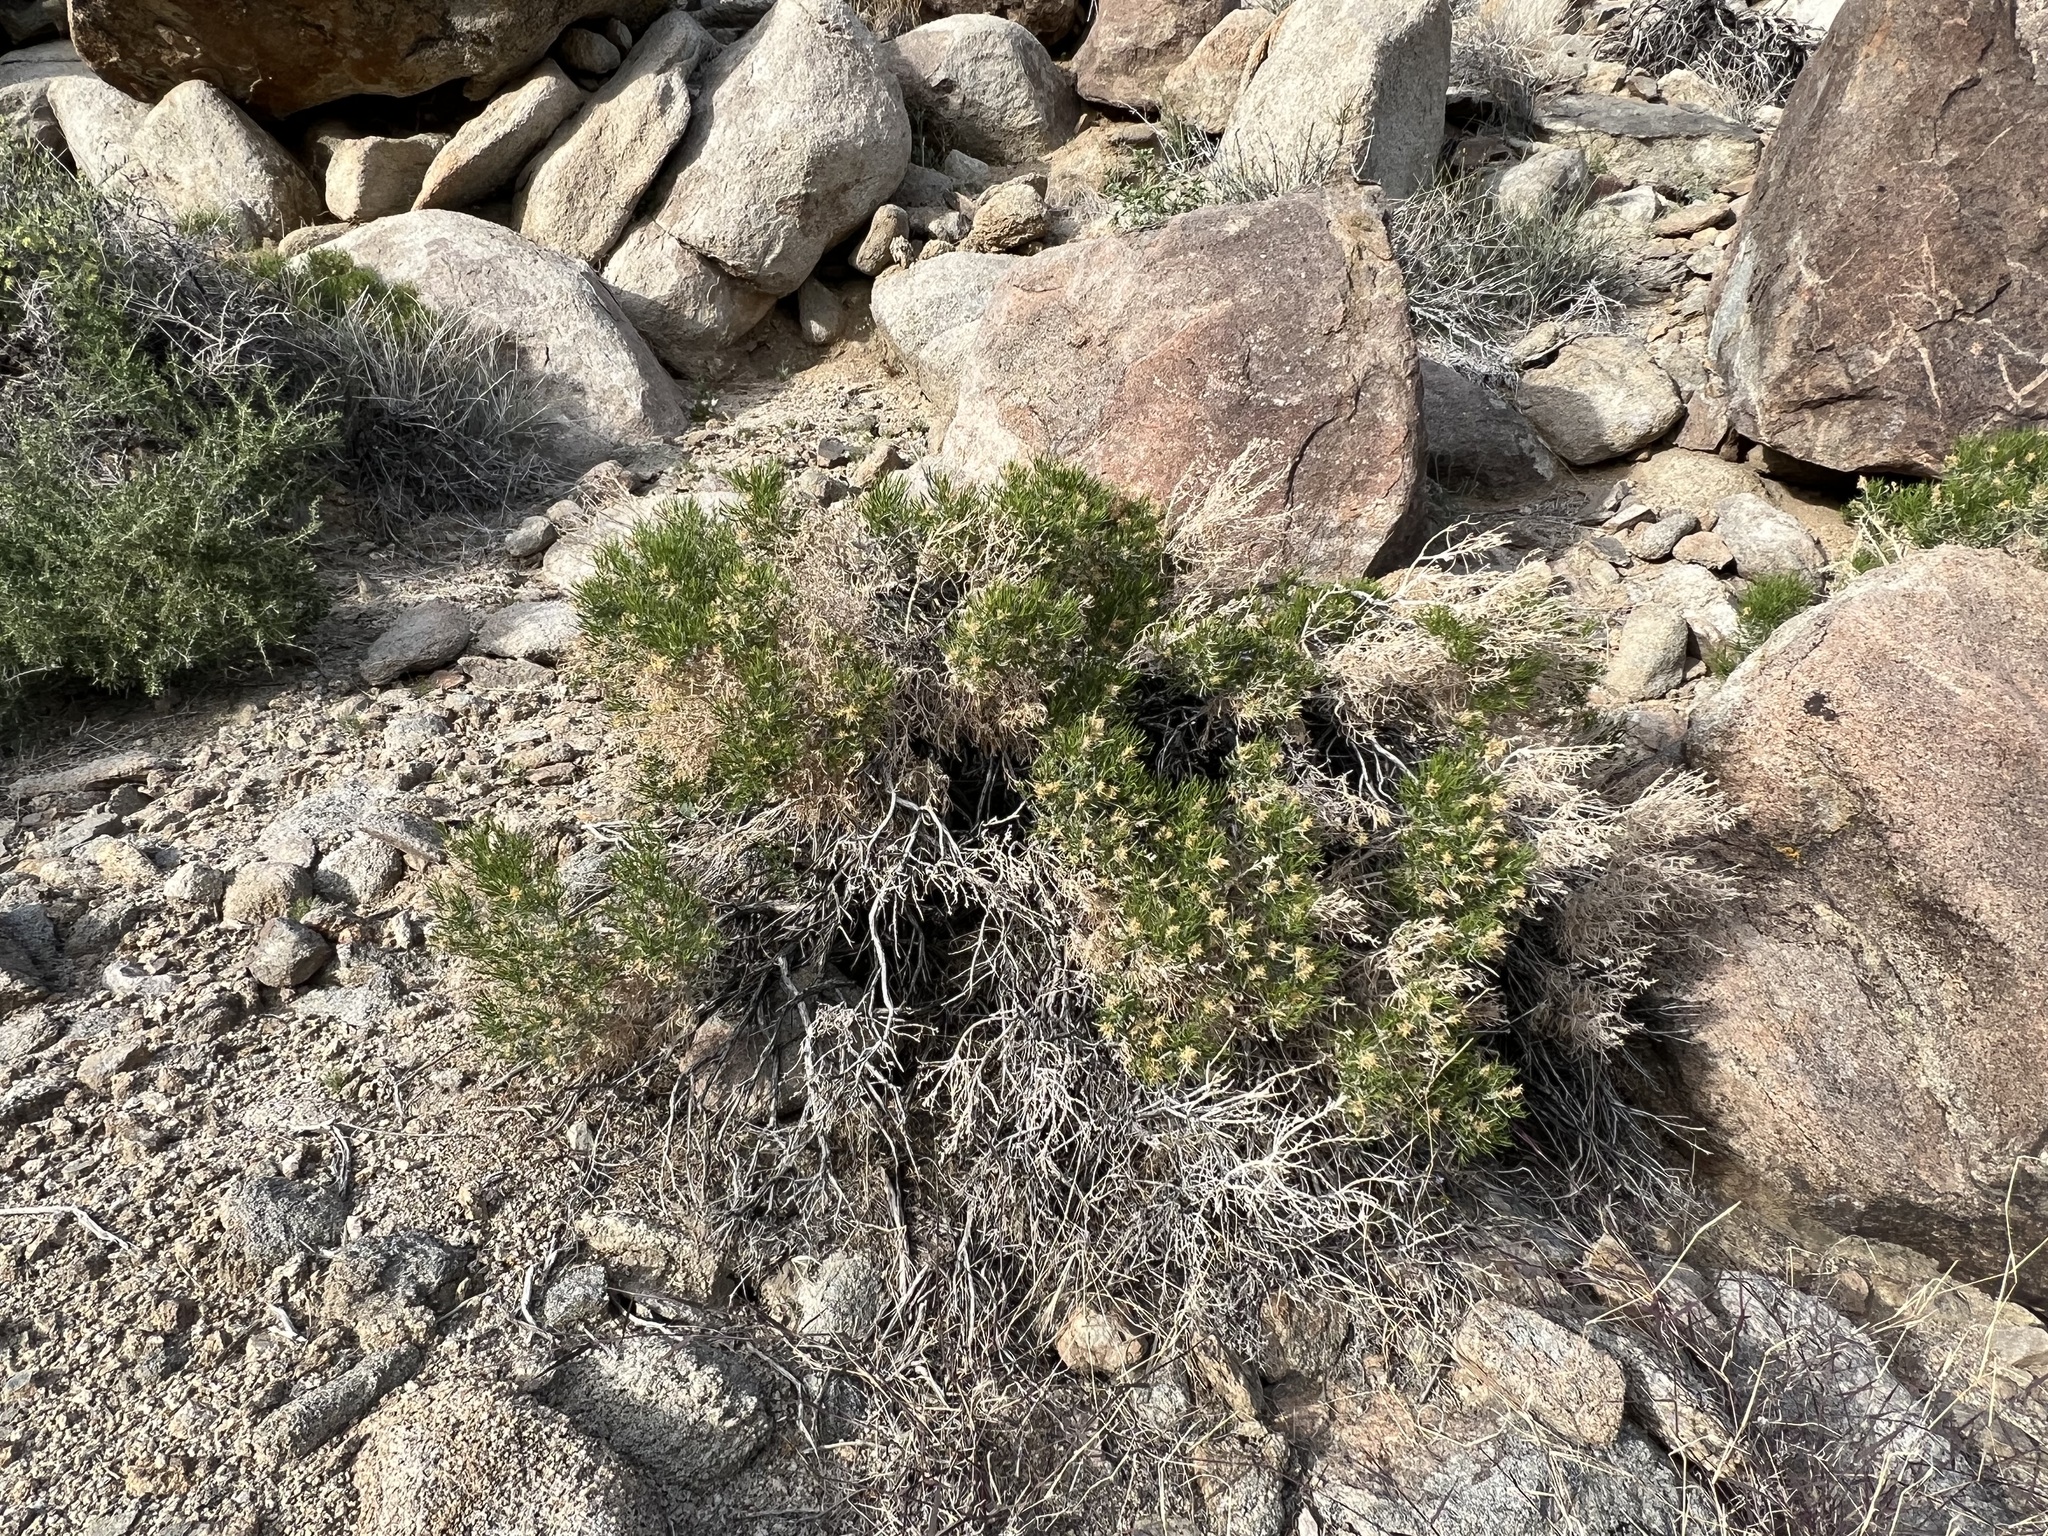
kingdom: Plantae
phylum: Tracheophyta
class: Magnoliopsida
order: Asterales
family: Asteraceae
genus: Ericameria
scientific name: Ericameria teretifolia
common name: Round-leaf rabbitbrush
